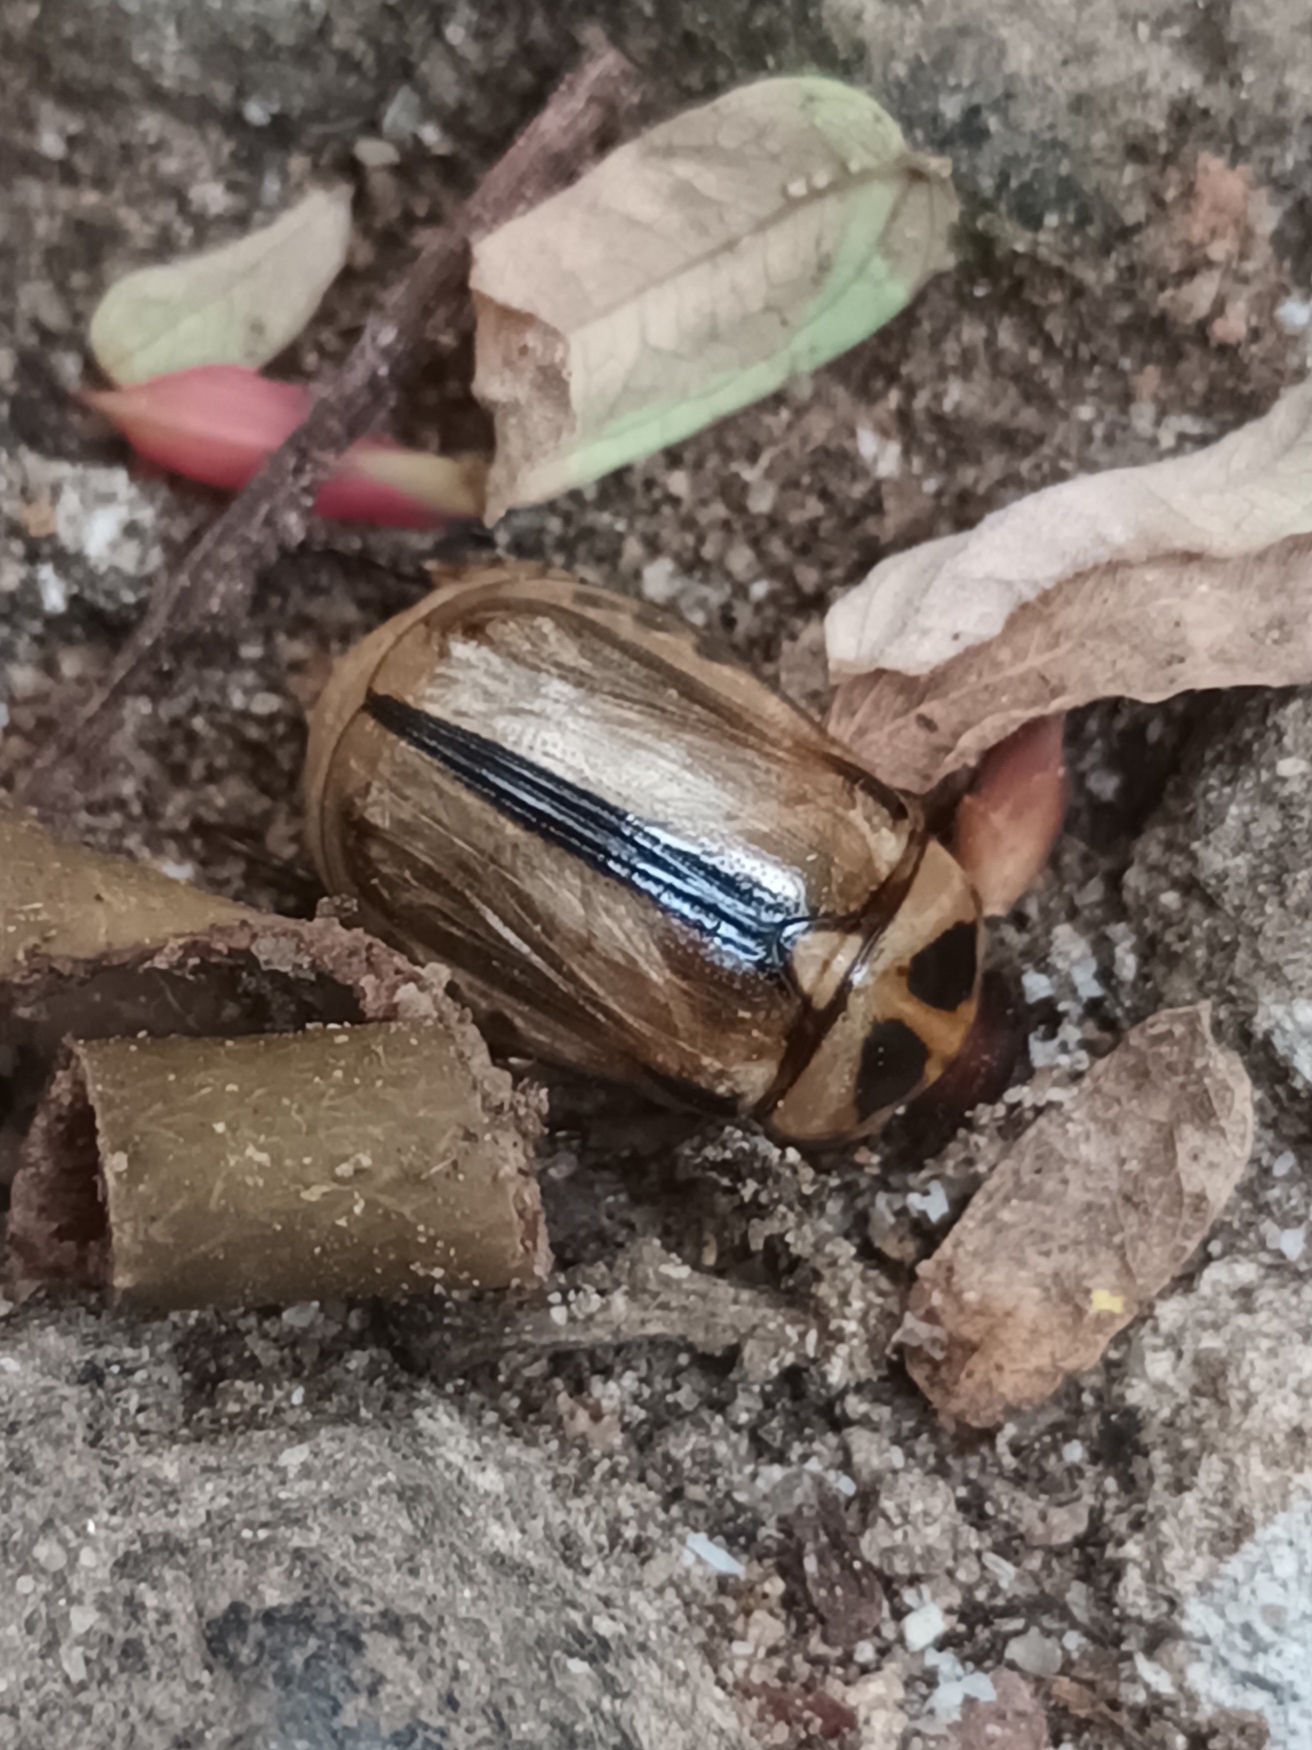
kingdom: Animalia
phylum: Arthropoda
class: Insecta
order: Coleoptera
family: Scarabaeidae
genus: Anomala
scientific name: Anomala ruficapilla
